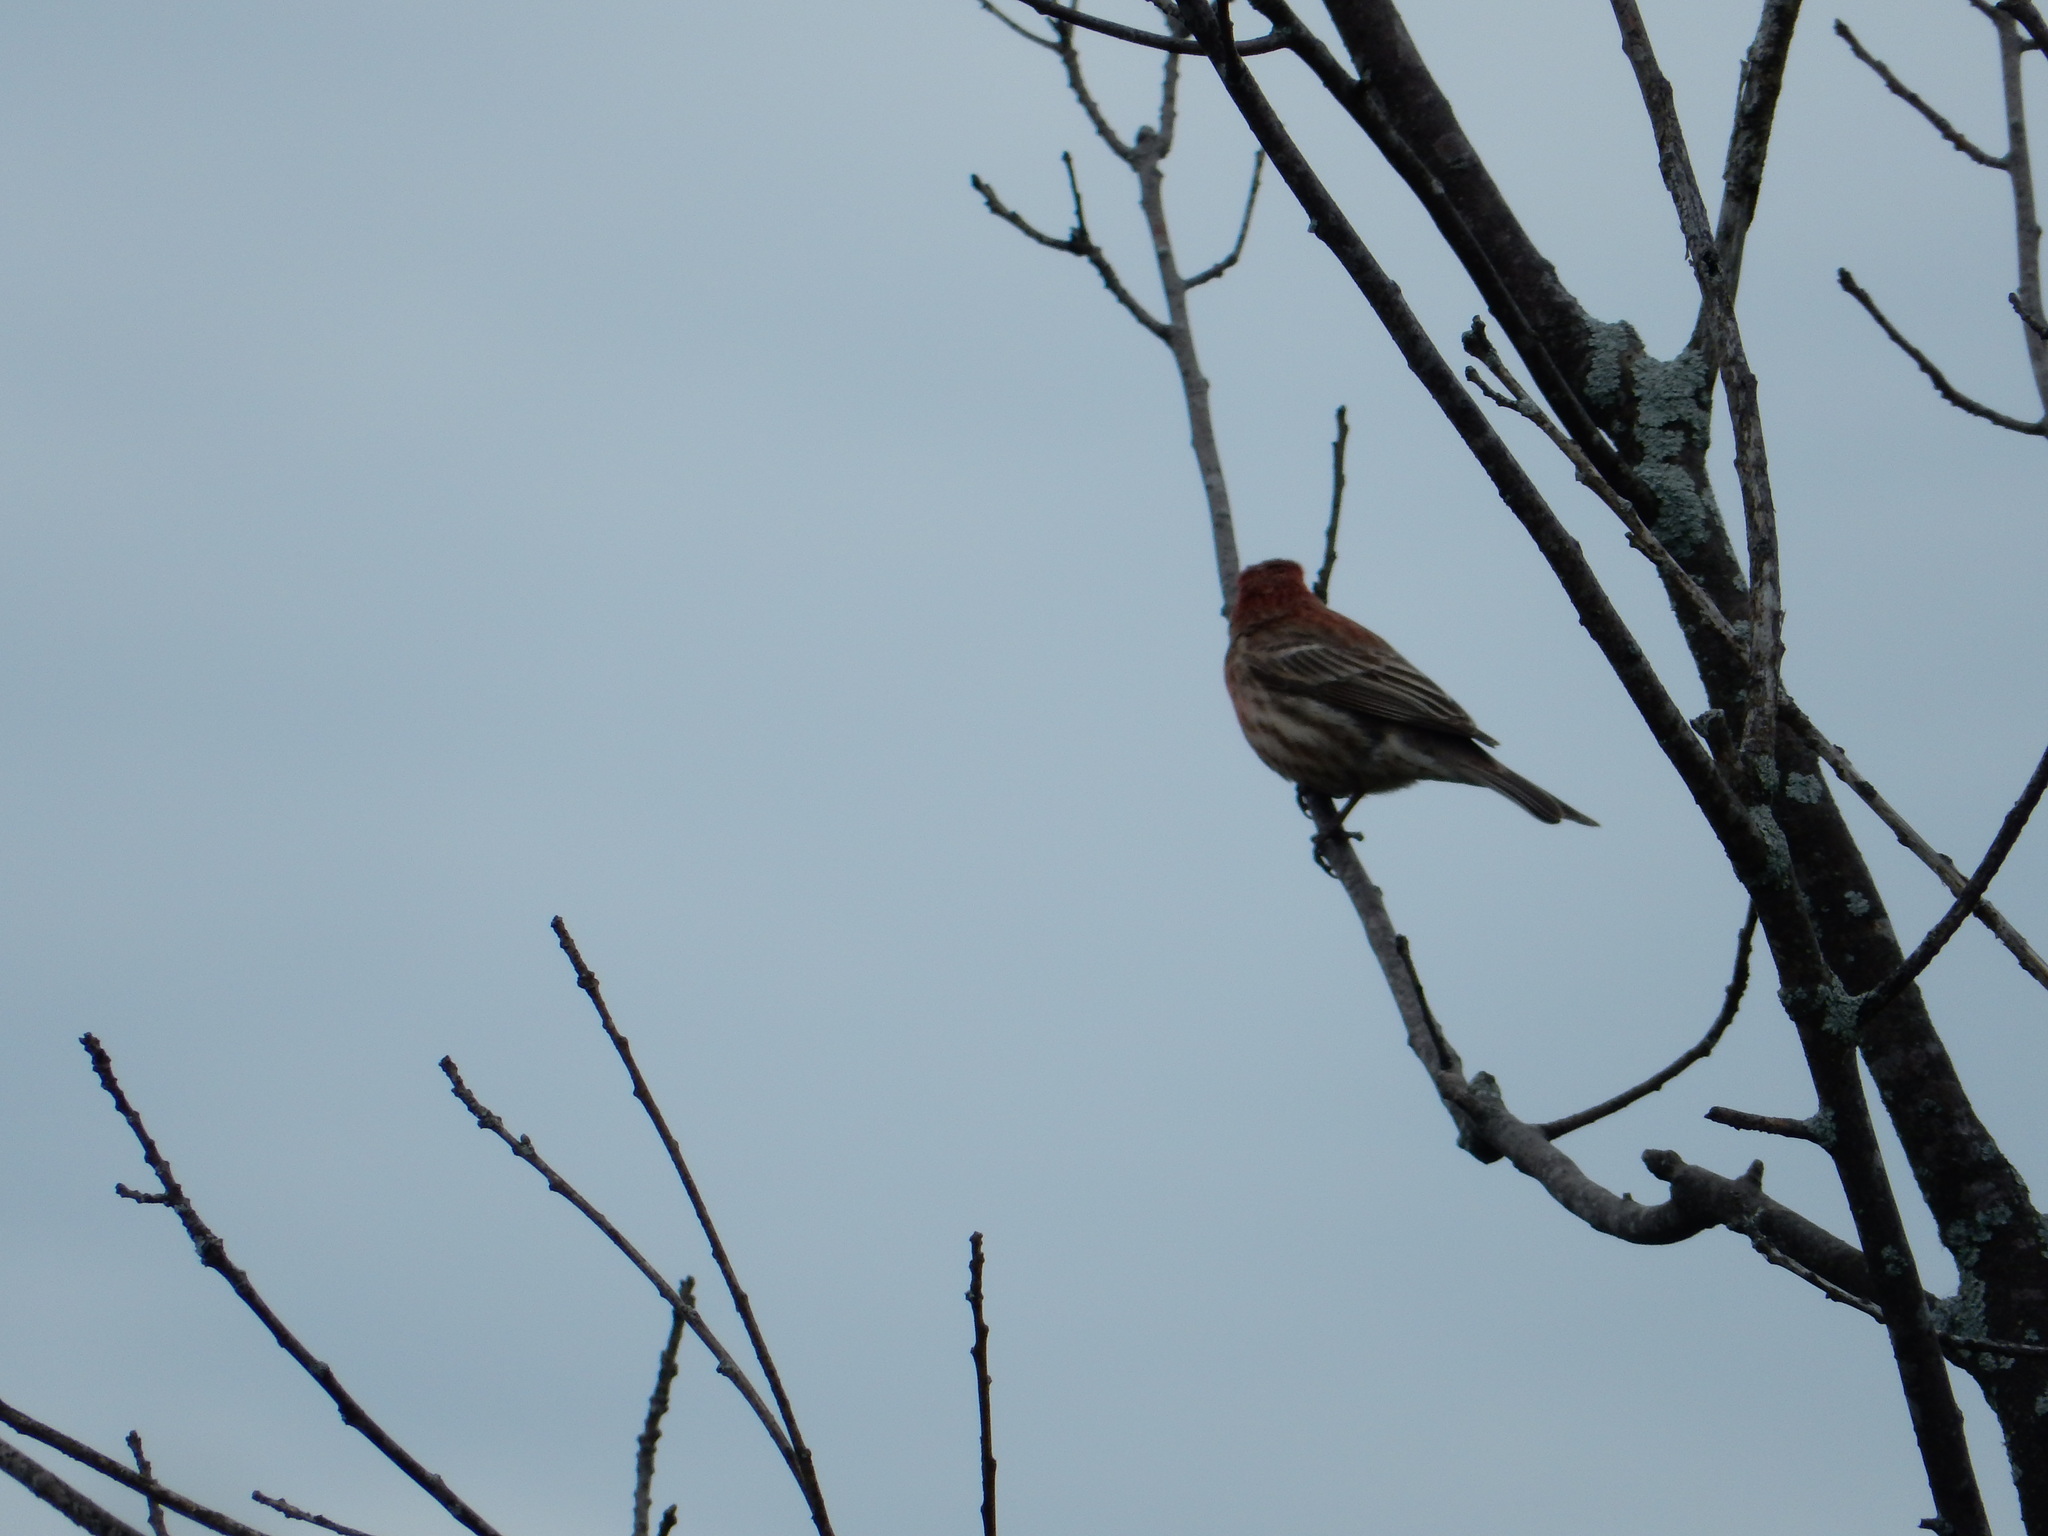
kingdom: Animalia
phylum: Chordata
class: Aves
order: Passeriformes
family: Fringillidae
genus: Haemorhous
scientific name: Haemorhous mexicanus
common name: House finch
